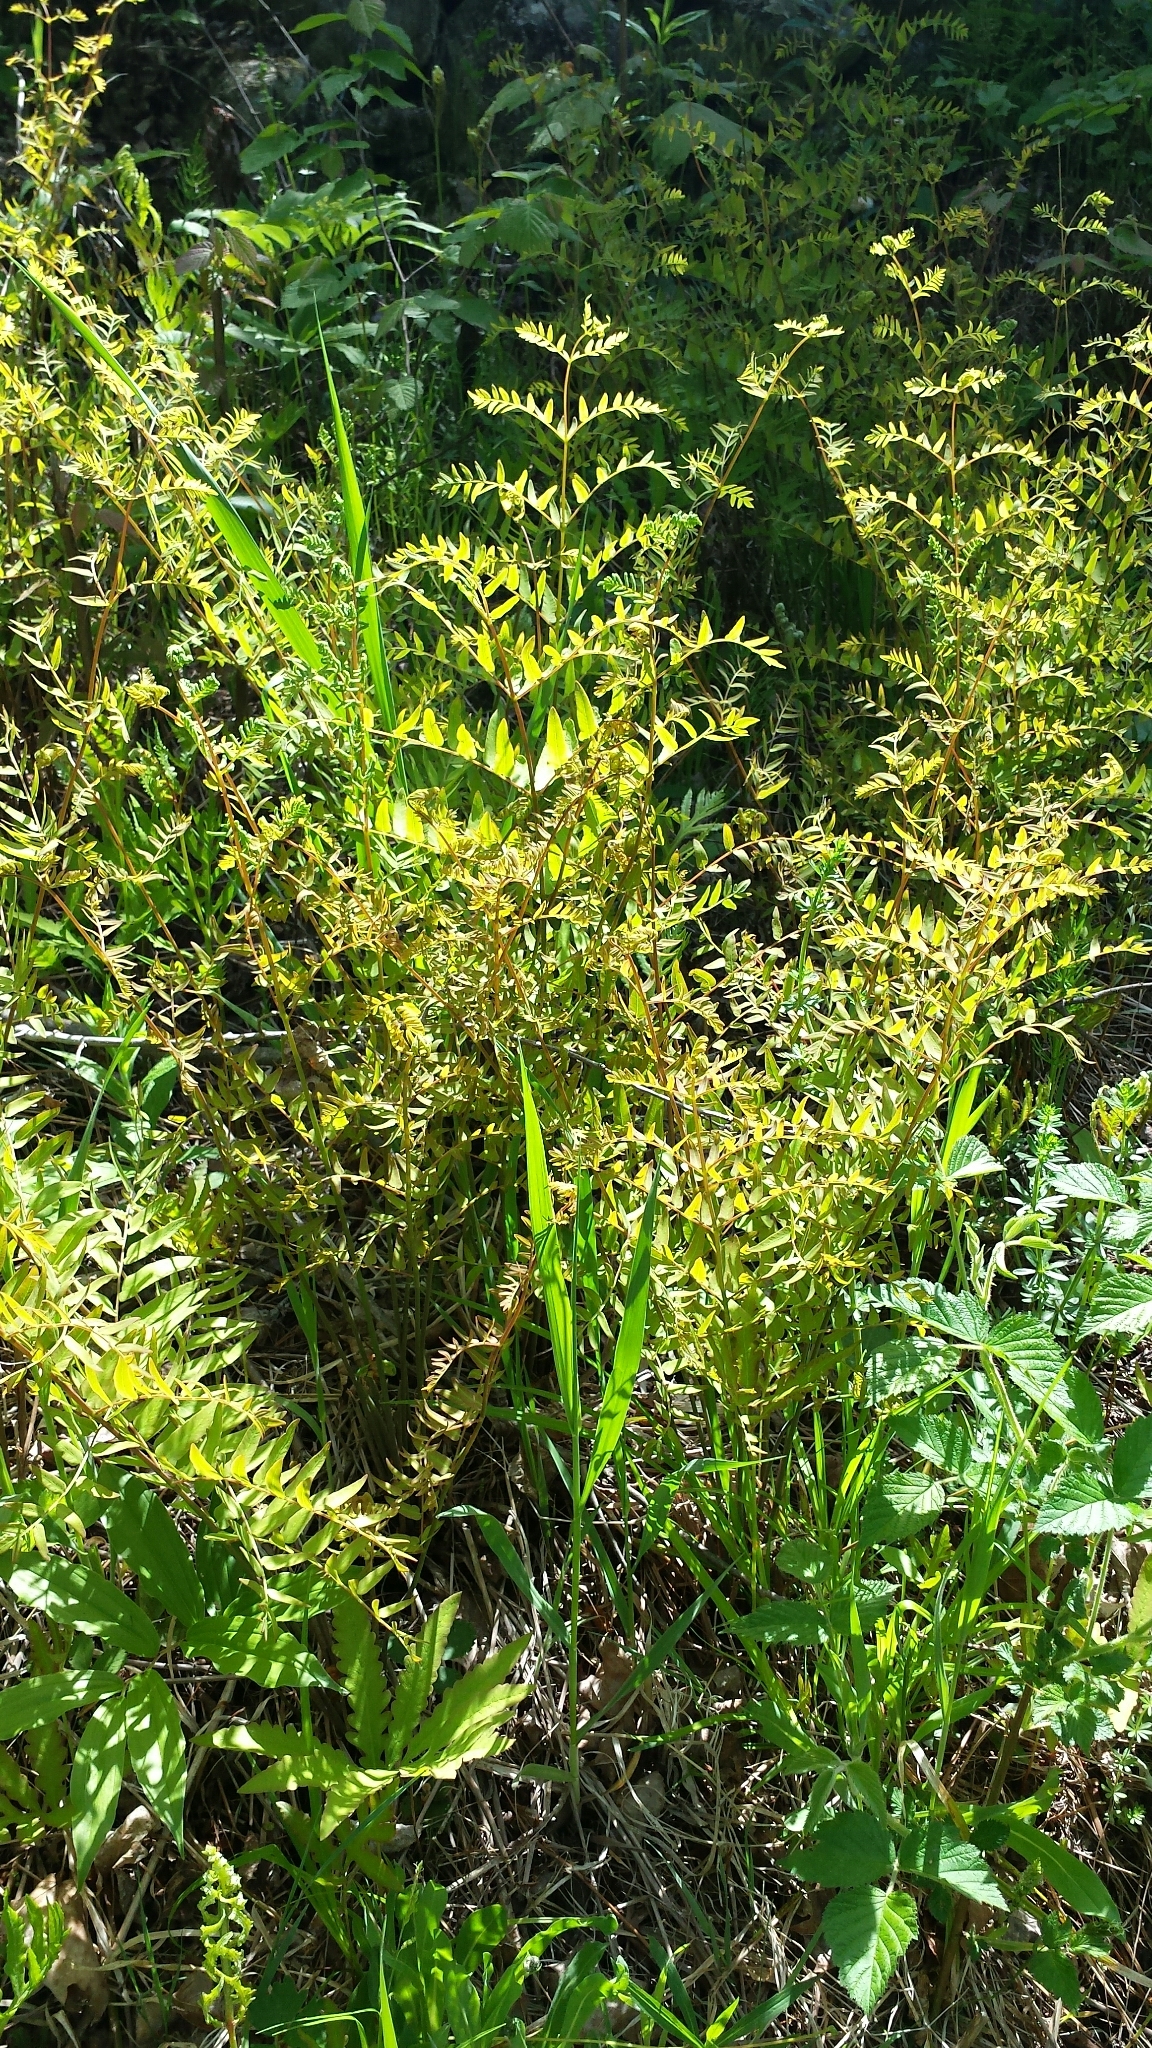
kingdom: Plantae
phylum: Tracheophyta
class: Polypodiopsida
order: Osmundales
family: Osmundaceae
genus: Osmunda
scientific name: Osmunda spectabilis
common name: American royal fern
